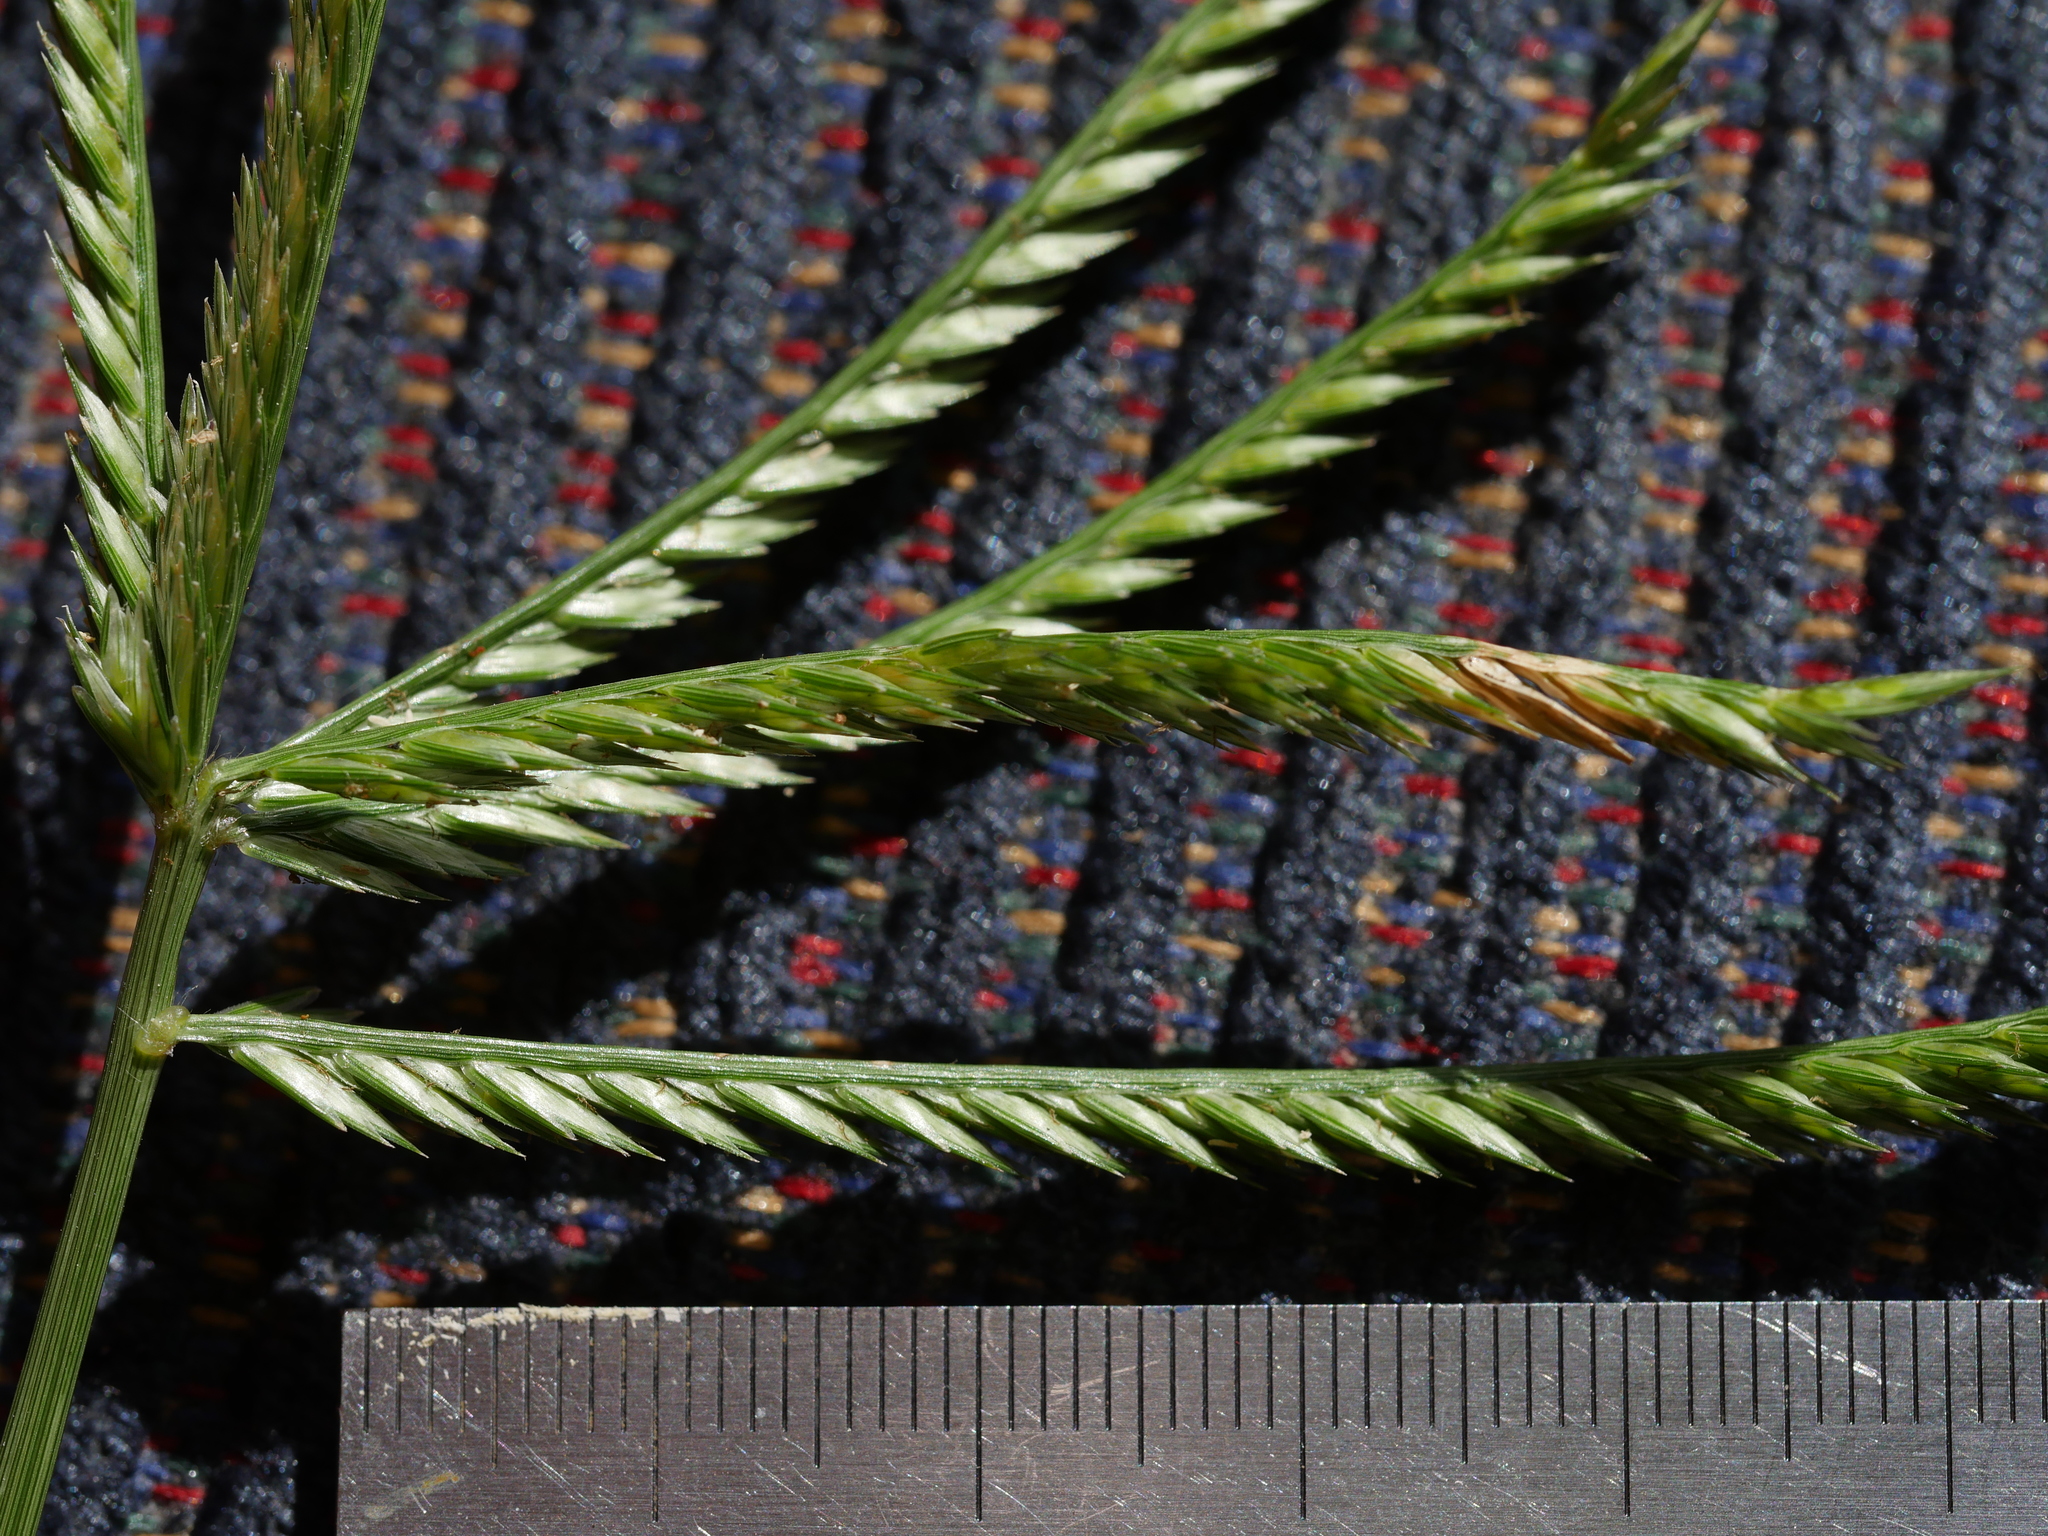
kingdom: Plantae
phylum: Tracheophyta
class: Liliopsida
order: Poales
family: Poaceae
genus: Eleusine
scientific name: Eleusine indica
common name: Yard-grass
